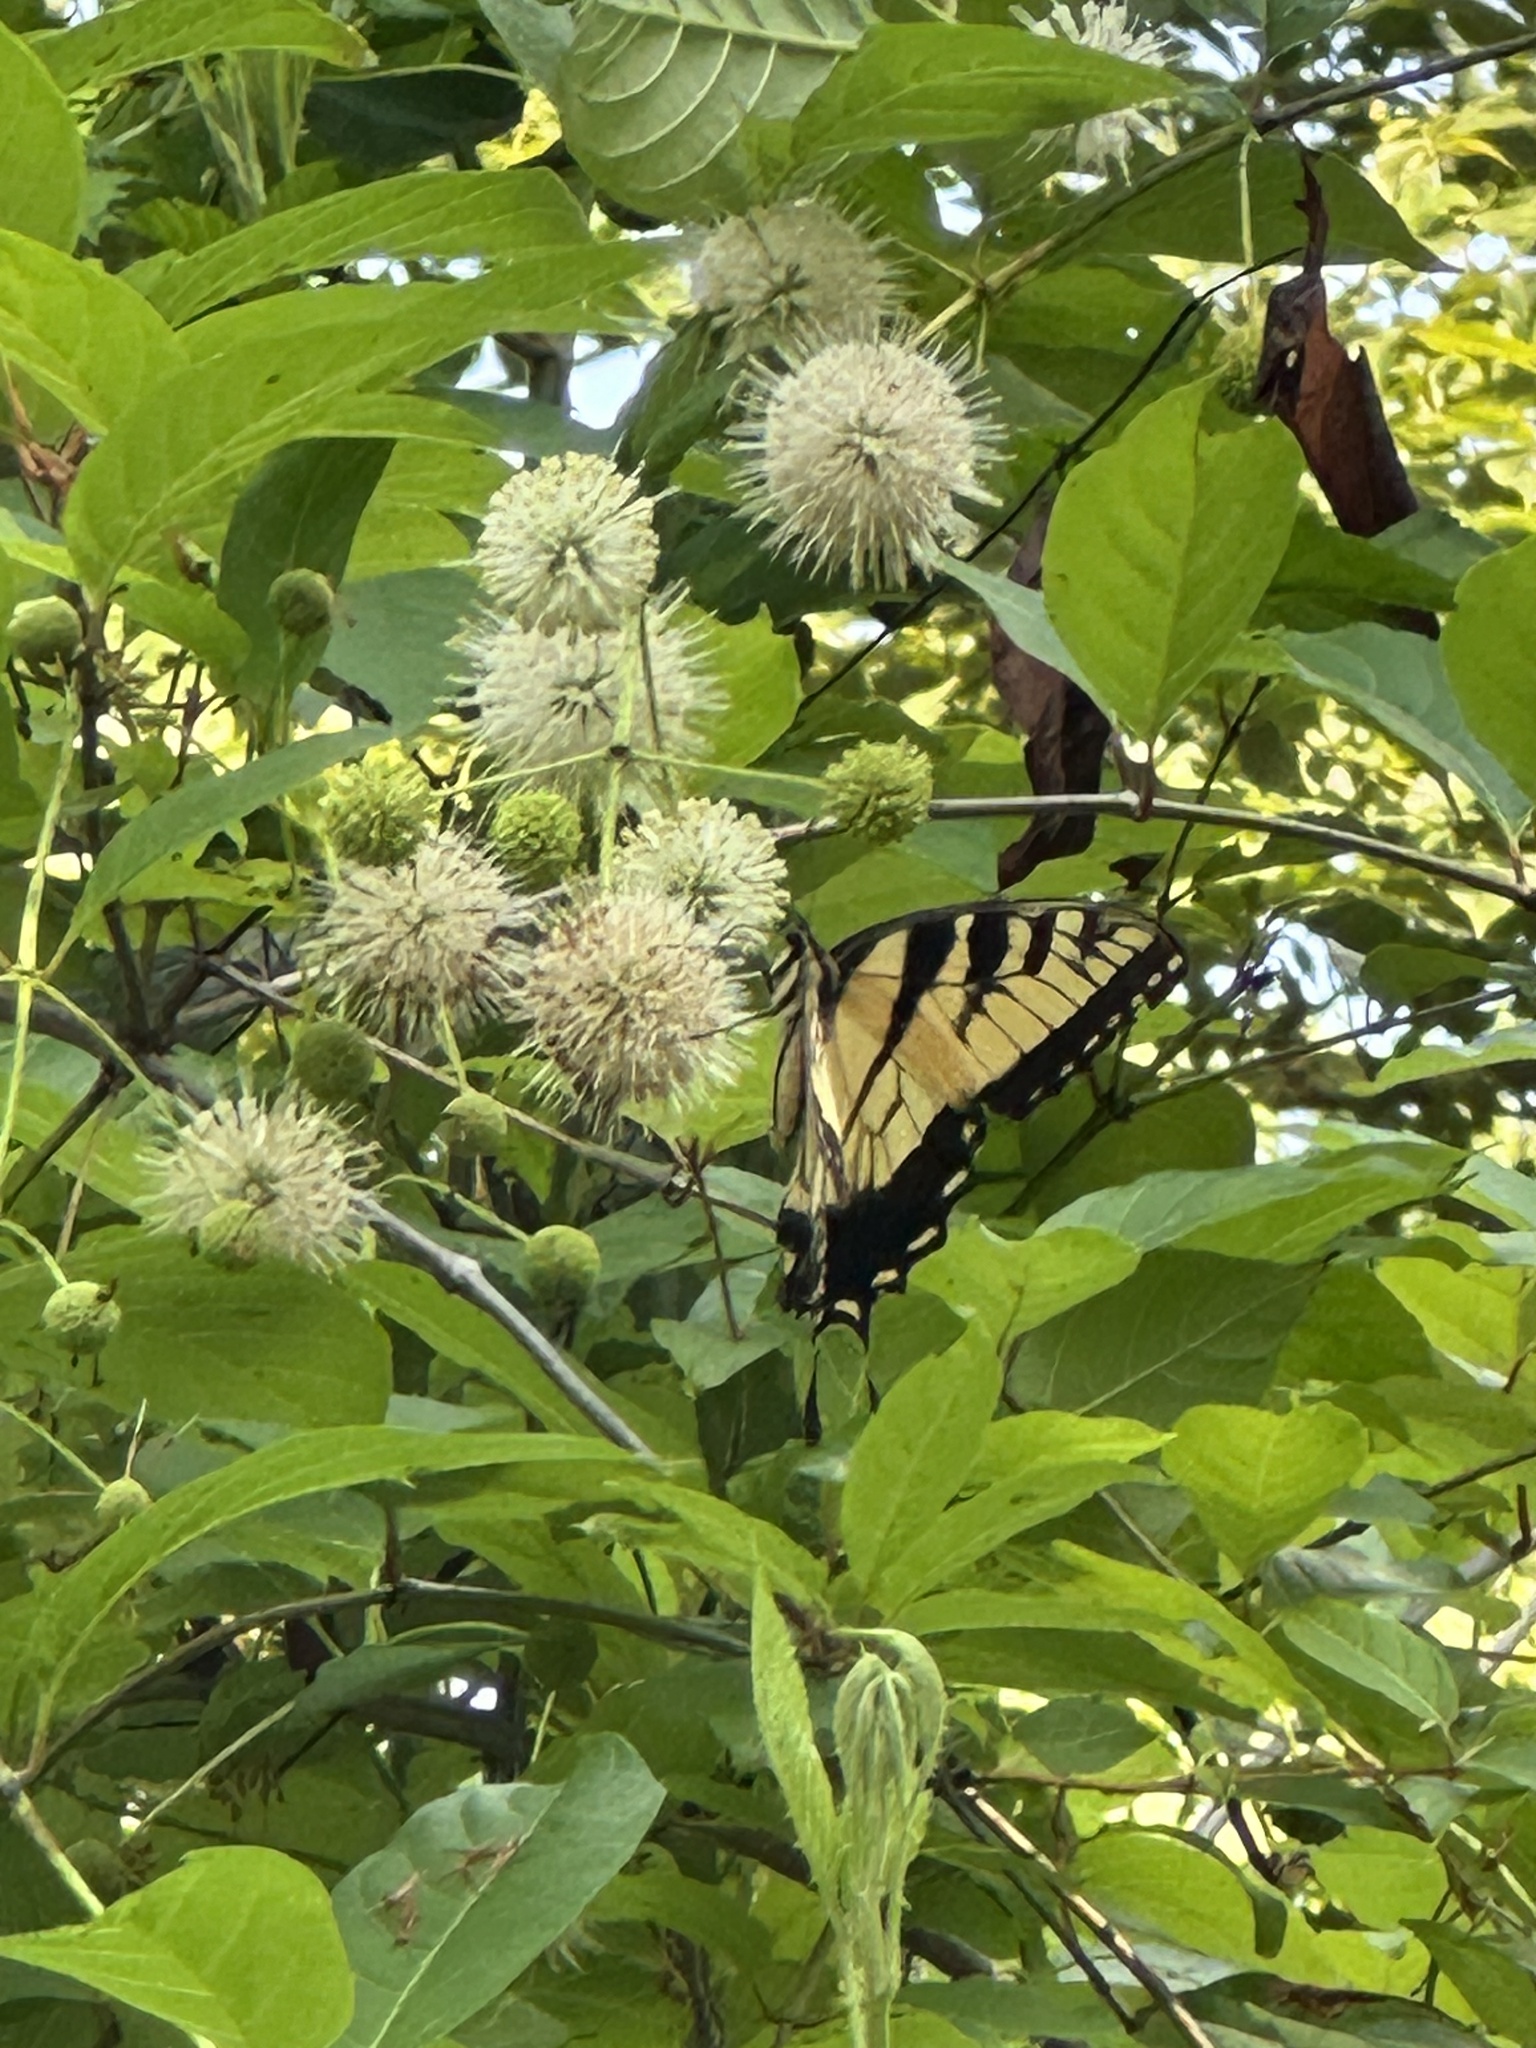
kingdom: Animalia
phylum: Arthropoda
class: Insecta
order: Lepidoptera
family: Papilionidae
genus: Papilio
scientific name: Papilio glaucus
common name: Tiger swallowtail
